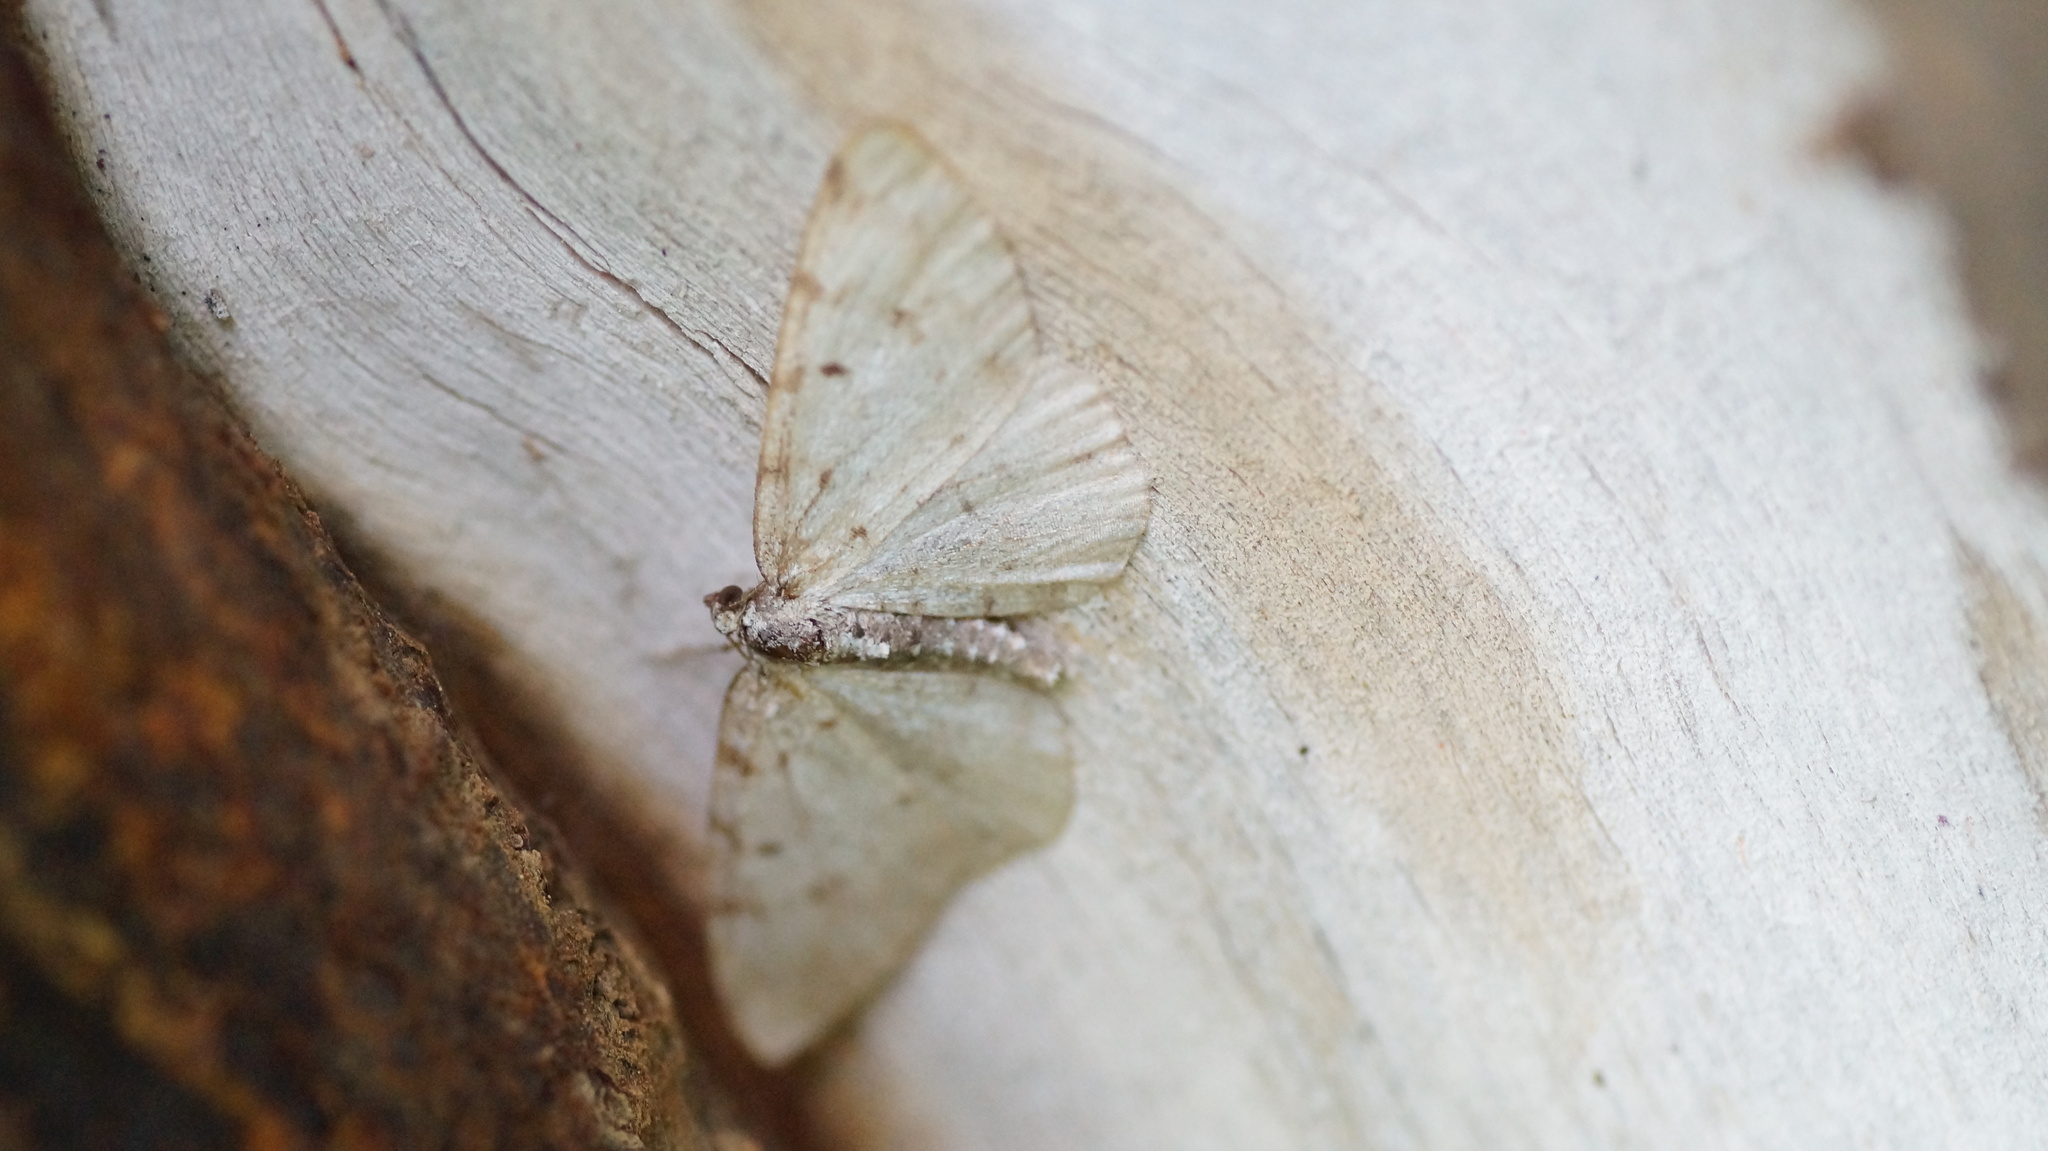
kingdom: Animalia
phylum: Arthropoda
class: Insecta
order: Lepidoptera
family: Geometridae
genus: Aethalura
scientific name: Aethalura punctulata
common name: Grey birch
